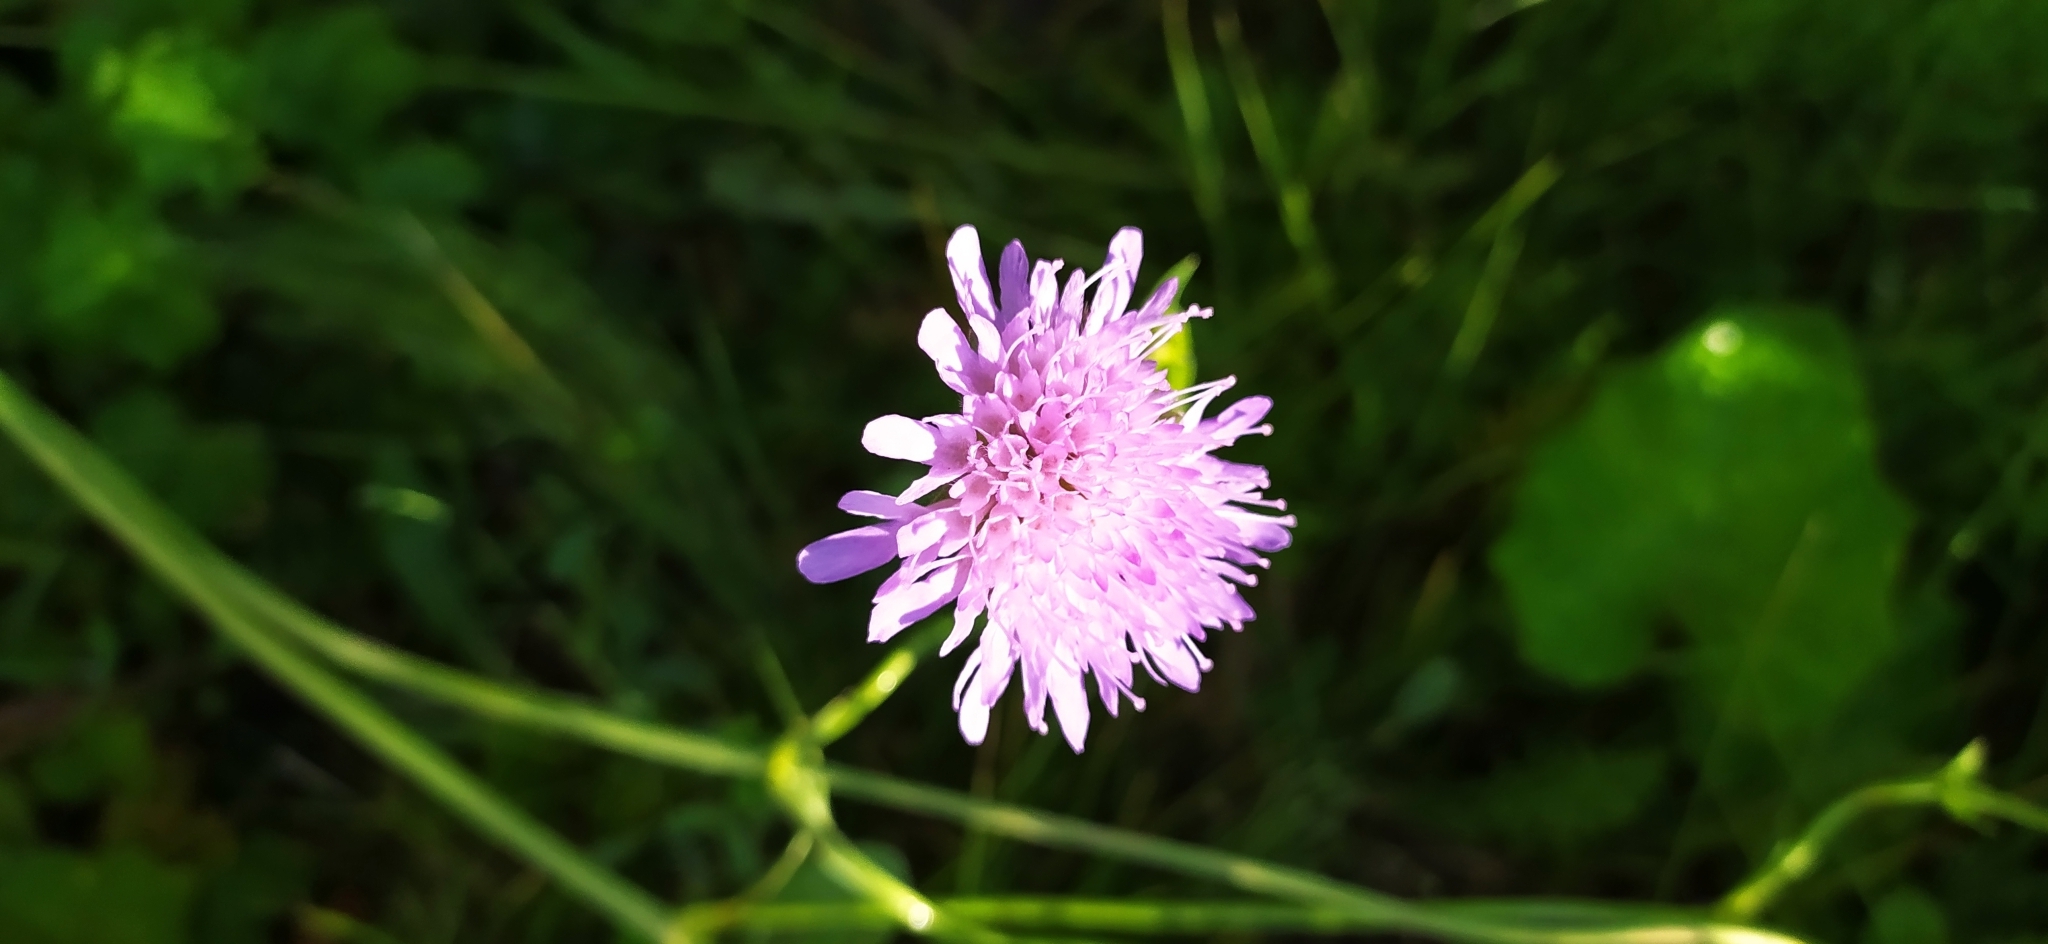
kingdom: Plantae
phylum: Tracheophyta
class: Magnoliopsida
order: Dipsacales
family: Caprifoliaceae
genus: Knautia
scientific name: Knautia arvensis
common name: Field scabiosa
